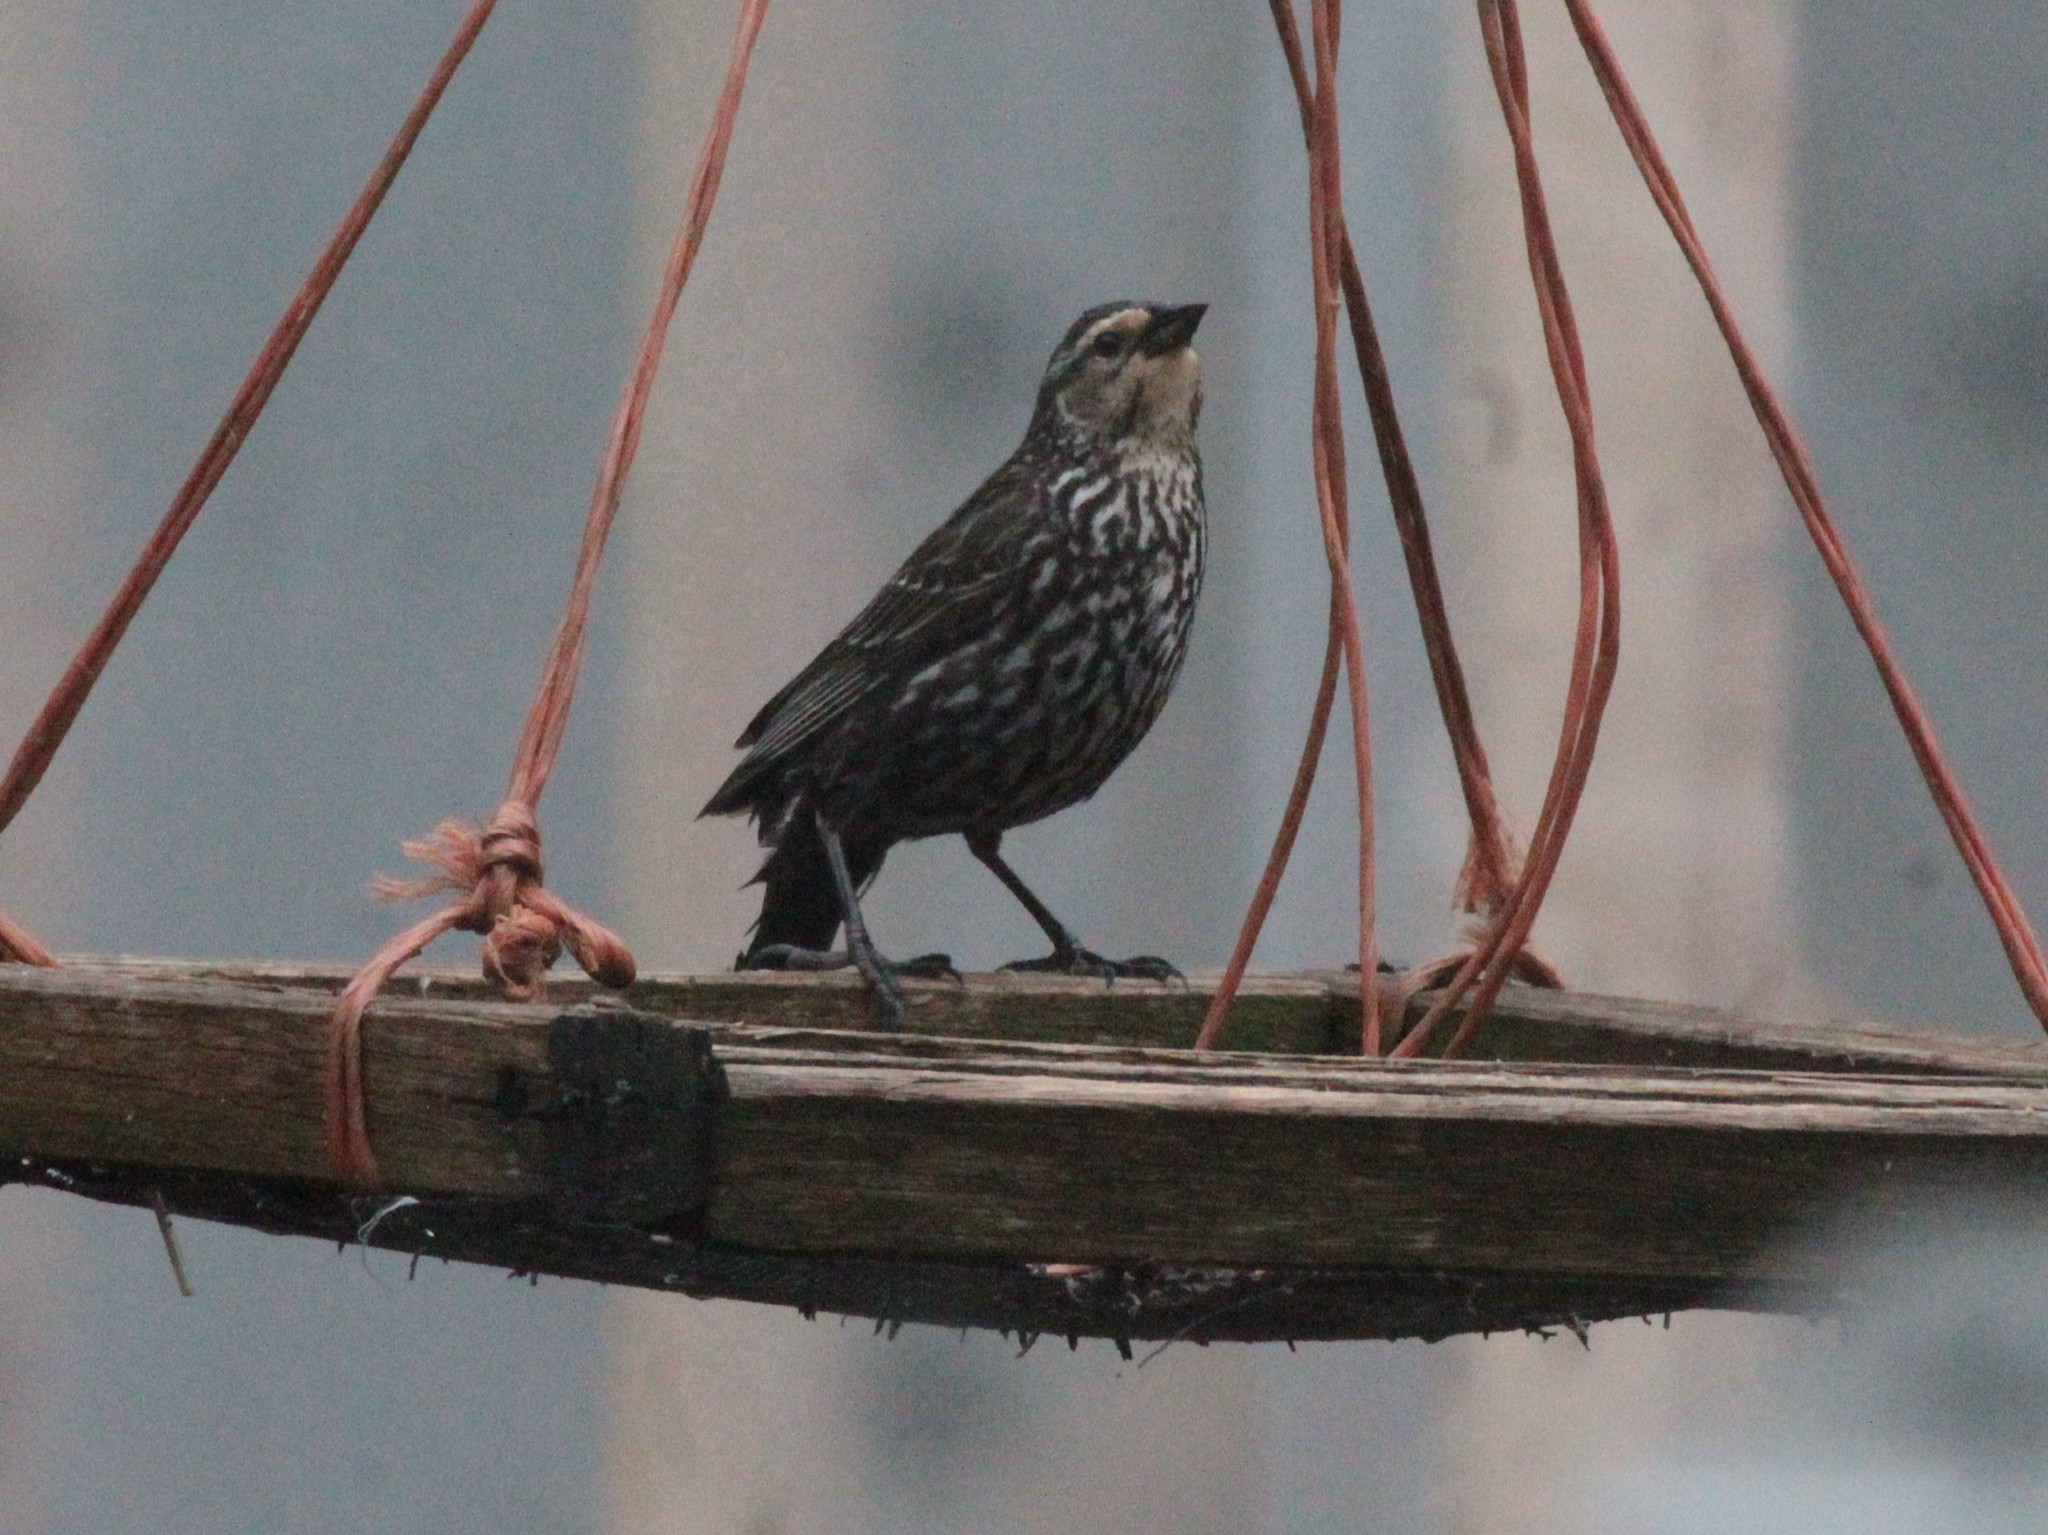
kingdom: Animalia
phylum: Chordata
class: Aves
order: Passeriformes
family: Icteridae
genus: Agelaius
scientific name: Agelaius phoeniceus
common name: Red-winged blackbird
